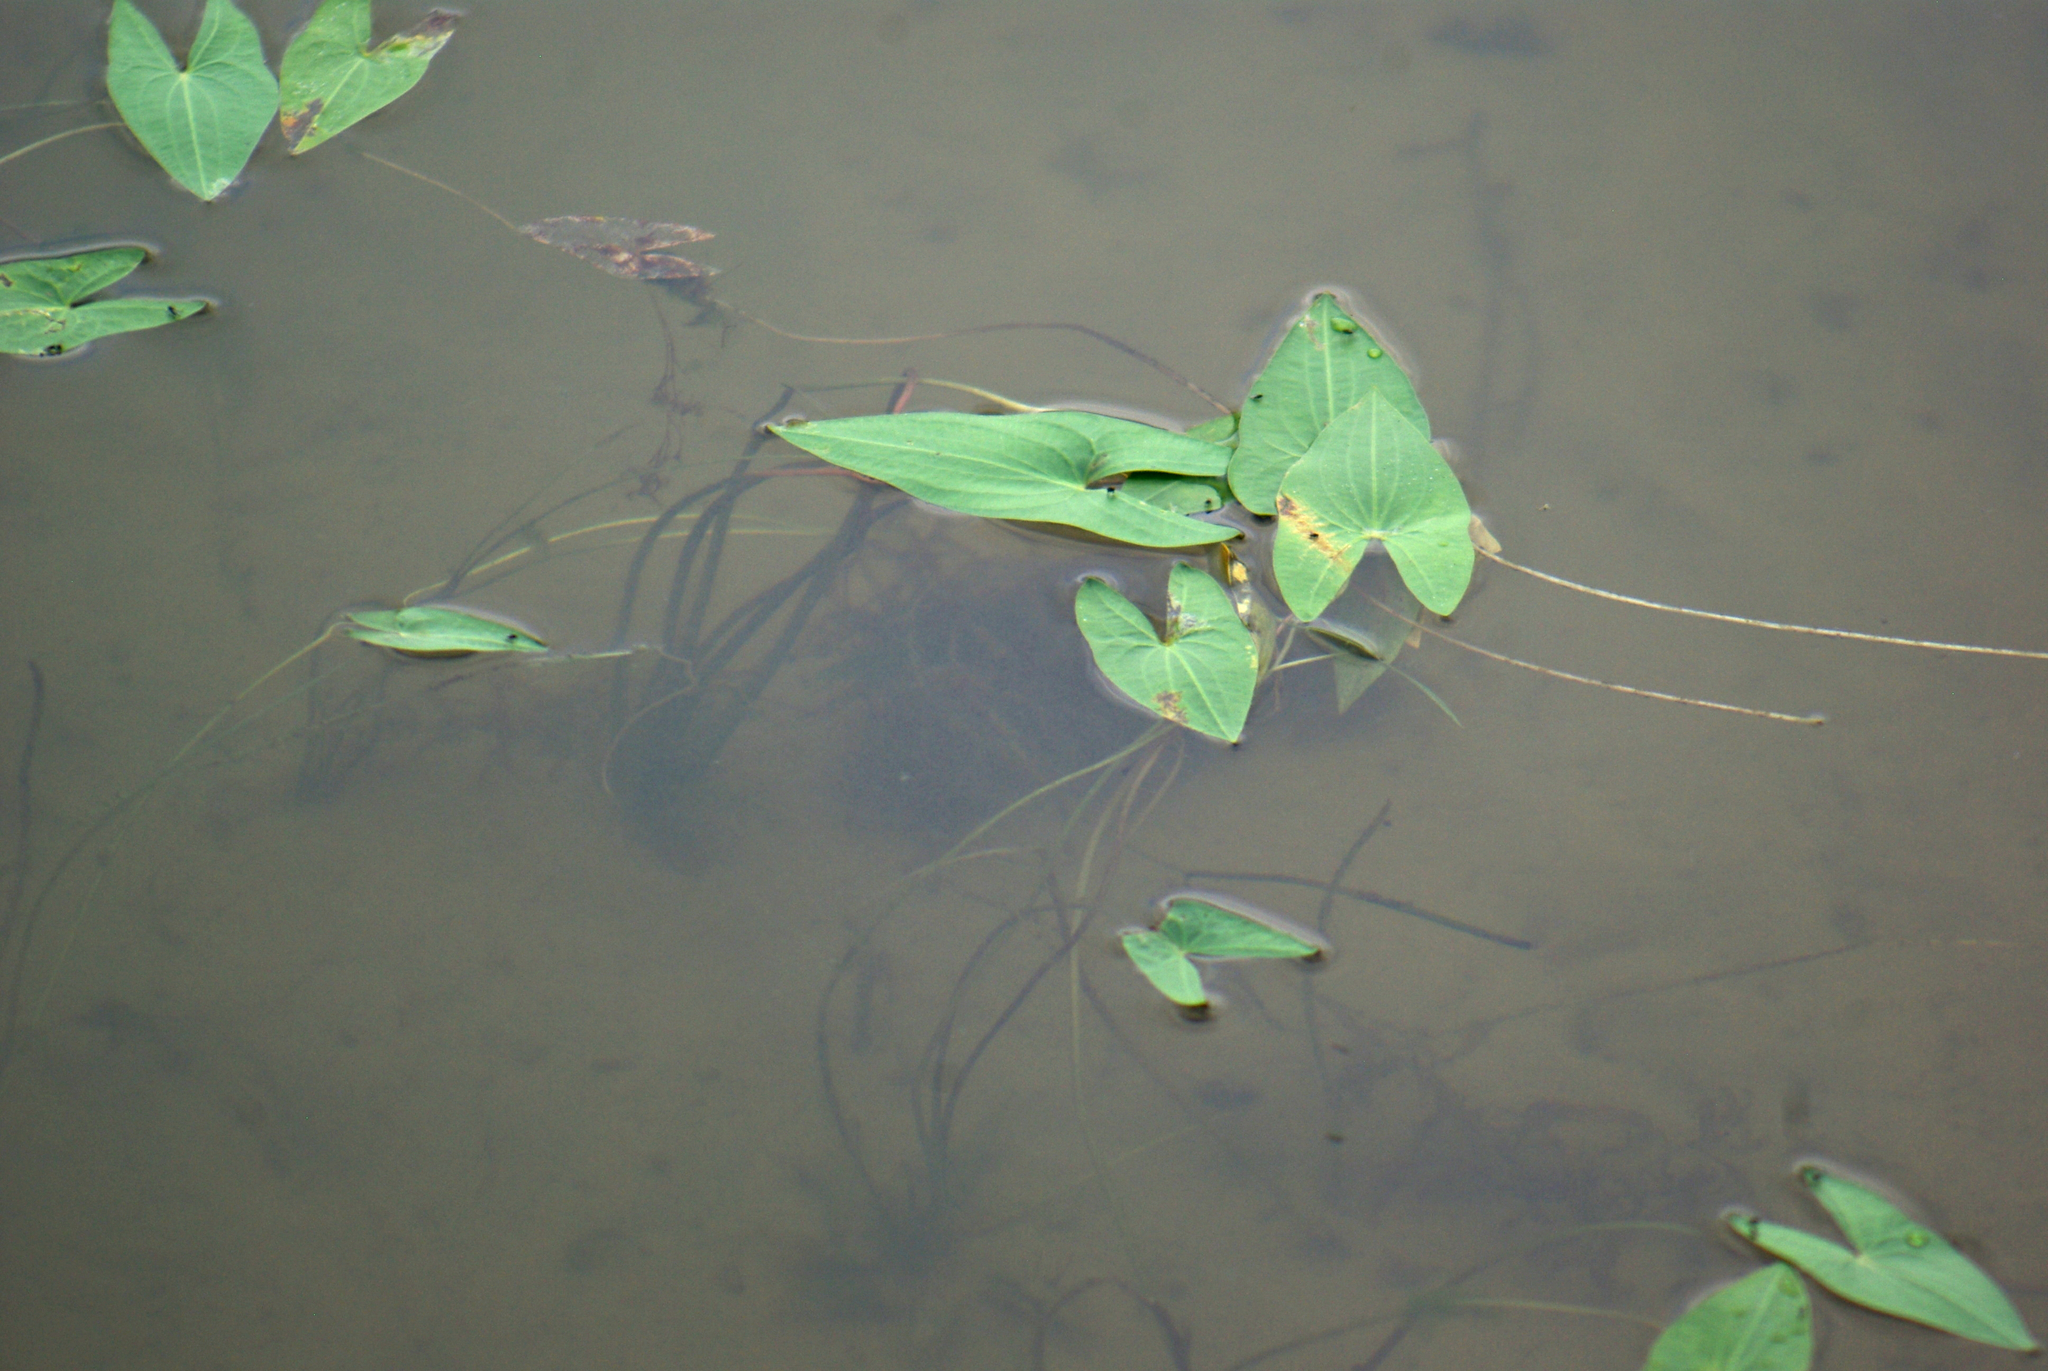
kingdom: Plantae
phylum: Tracheophyta
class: Liliopsida
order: Alismatales
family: Alismataceae
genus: Sagittaria
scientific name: Sagittaria cuneata
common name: Northern arrowhead
